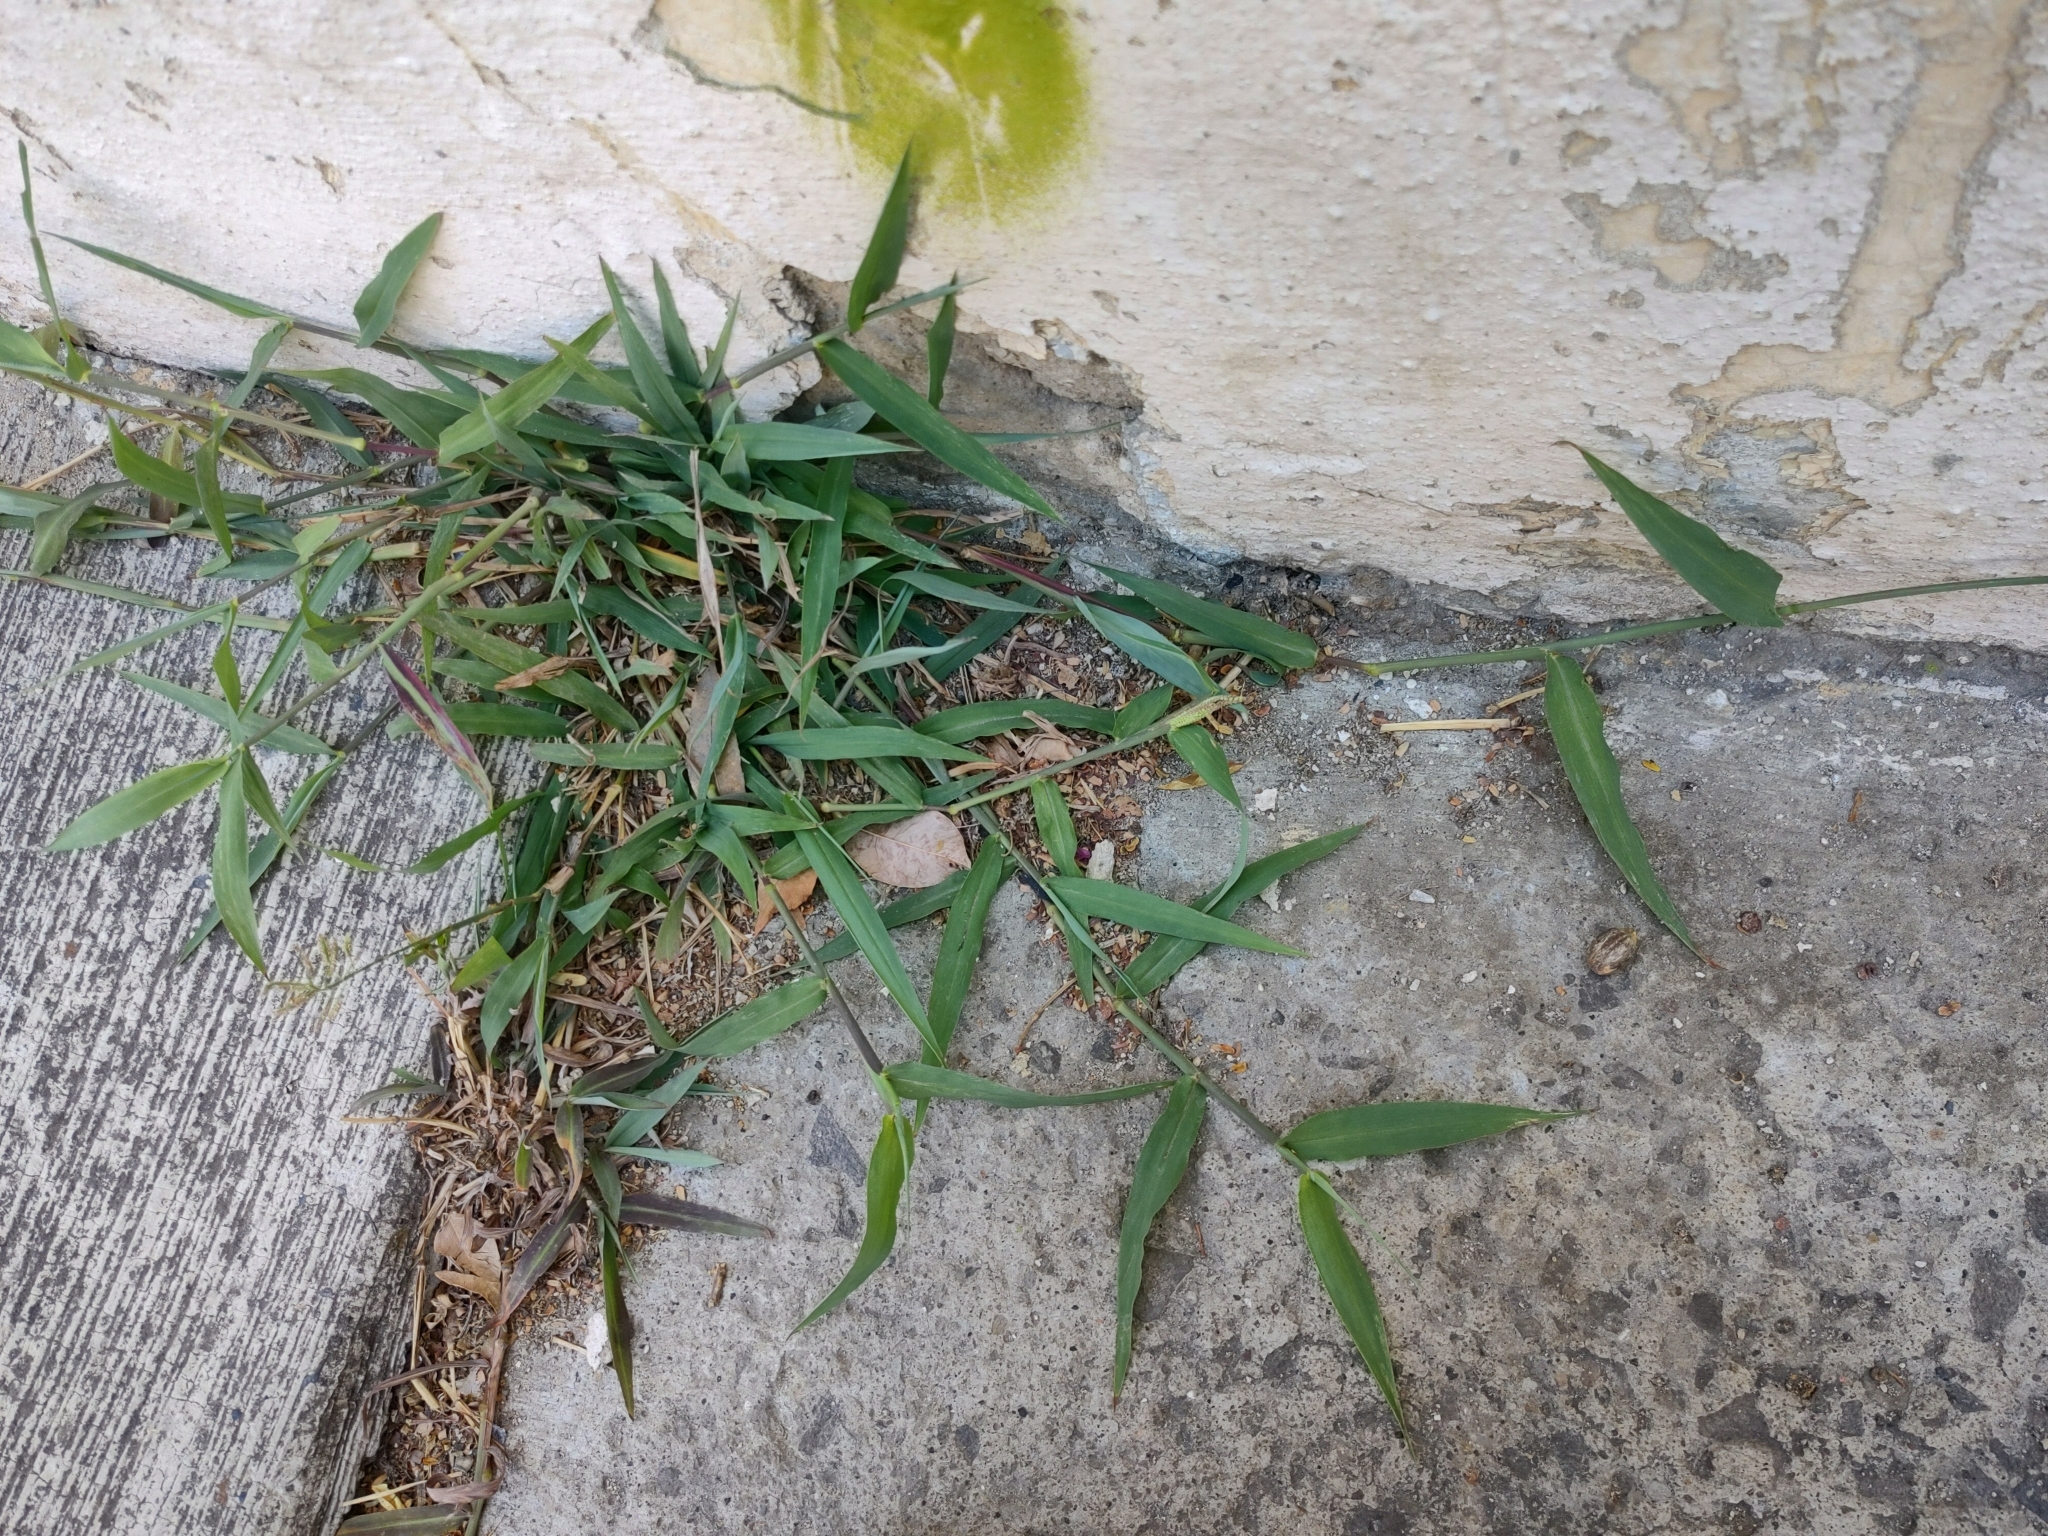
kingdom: Plantae
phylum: Tracheophyta
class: Liliopsida
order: Poales
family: Poaceae
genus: Paspalum
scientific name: Paspalum paniculatum
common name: Arrocillo
